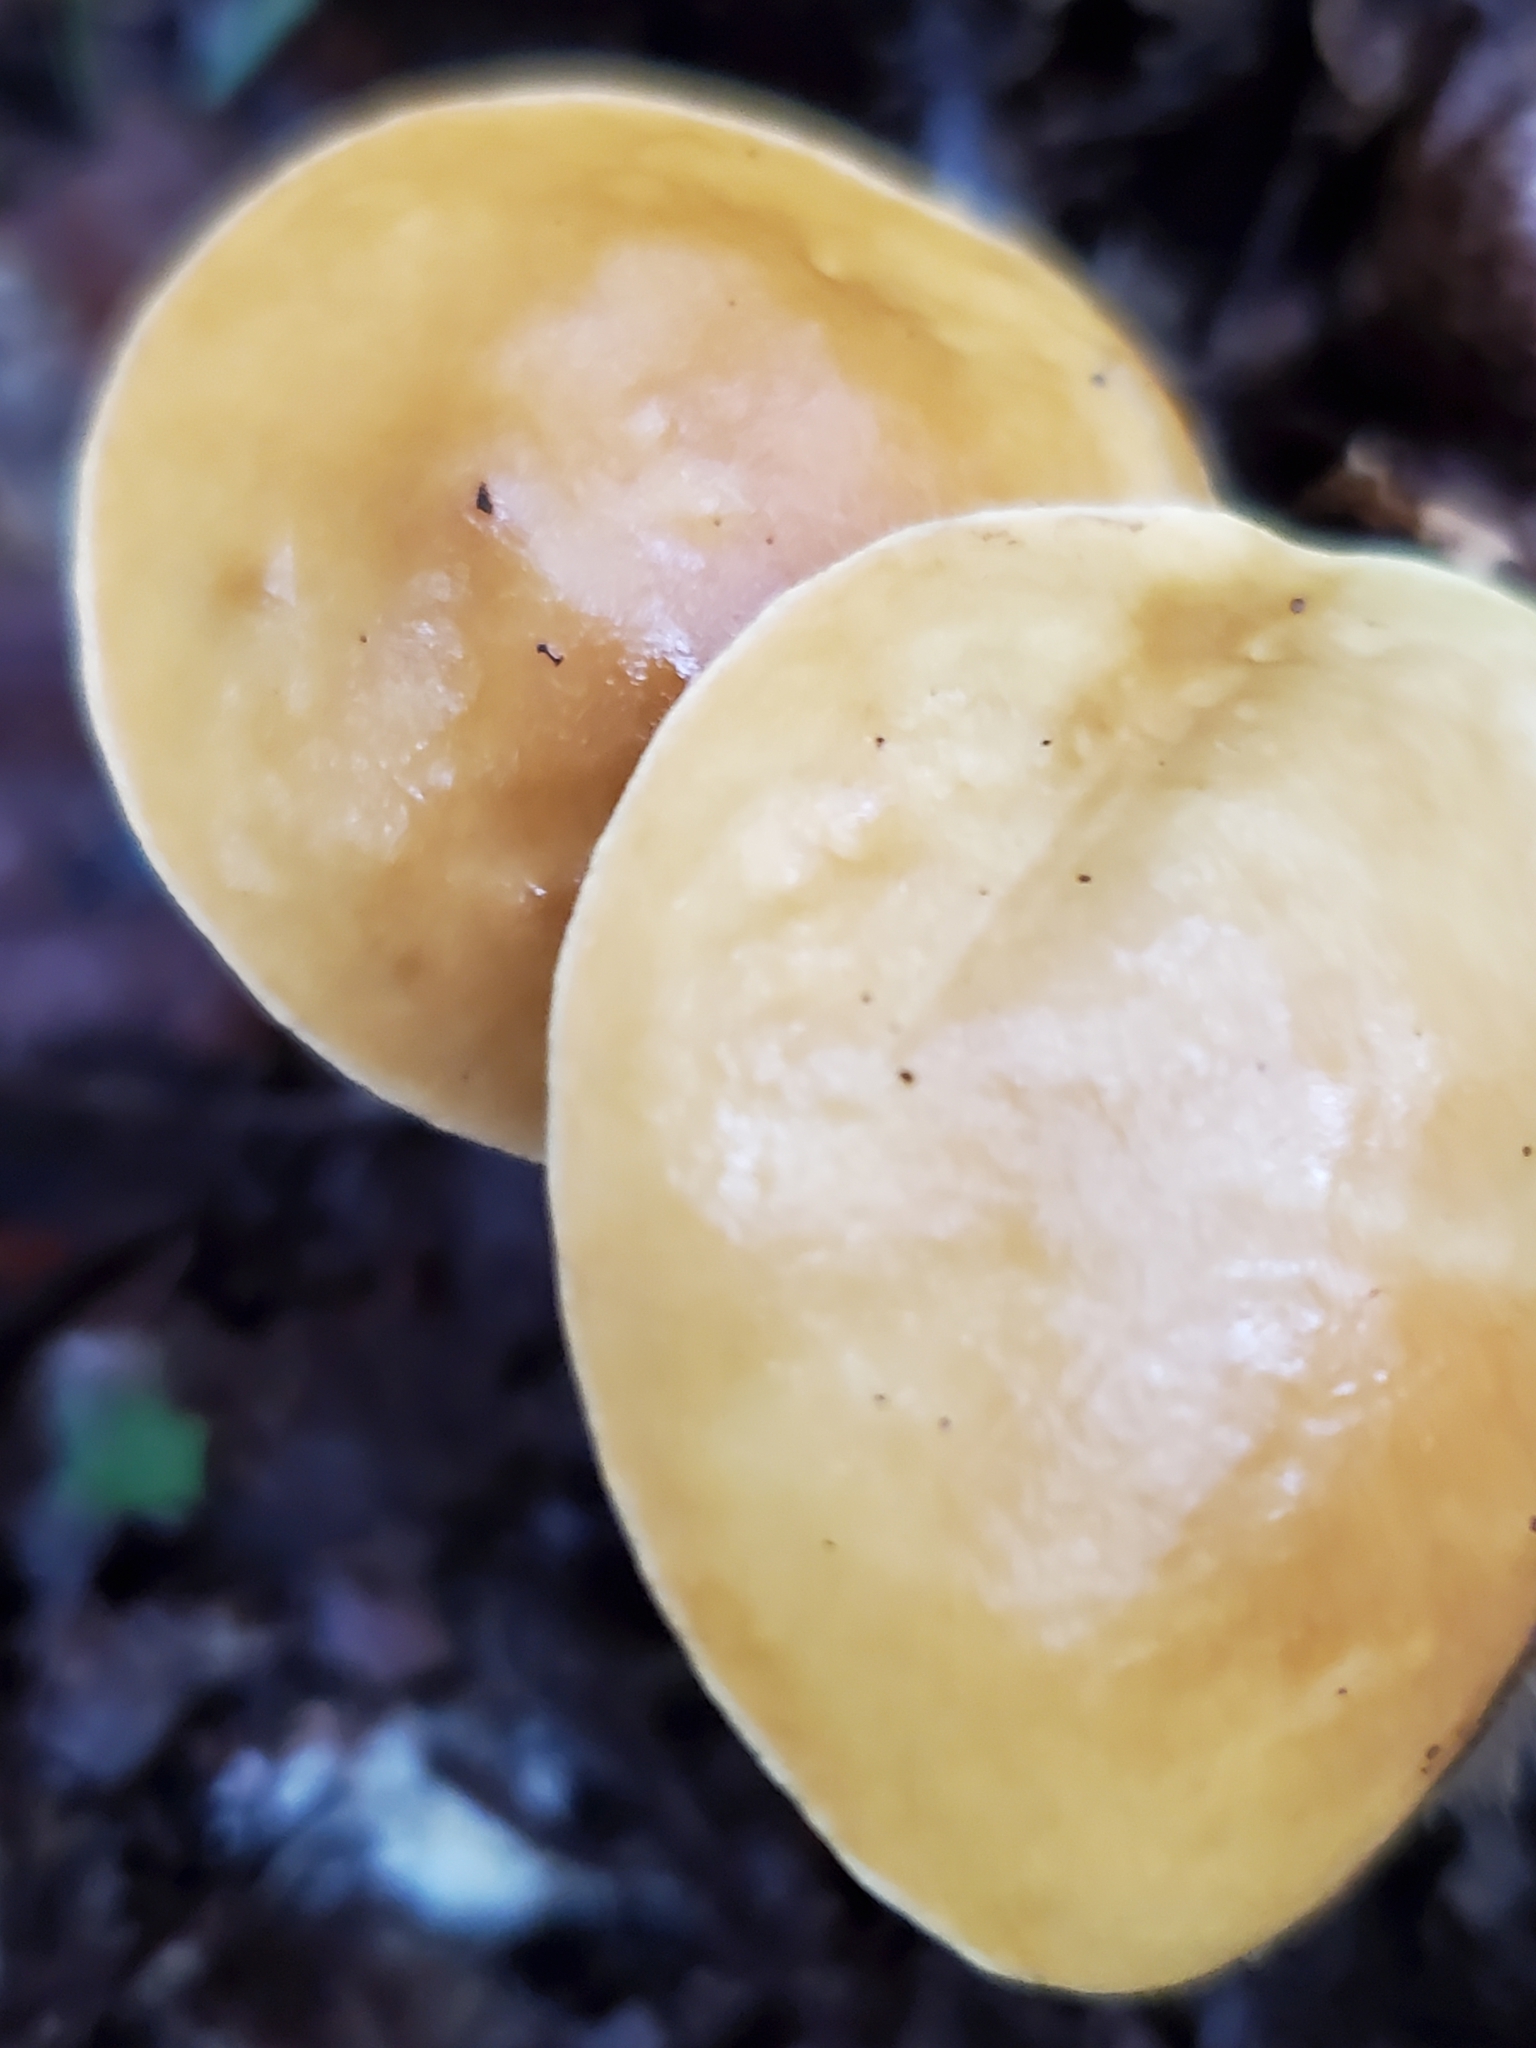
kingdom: Fungi
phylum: Basidiomycota
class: Agaricomycetes
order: Boletales
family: Boletaceae
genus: Leccinum
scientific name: Leccinum longicurvipes
